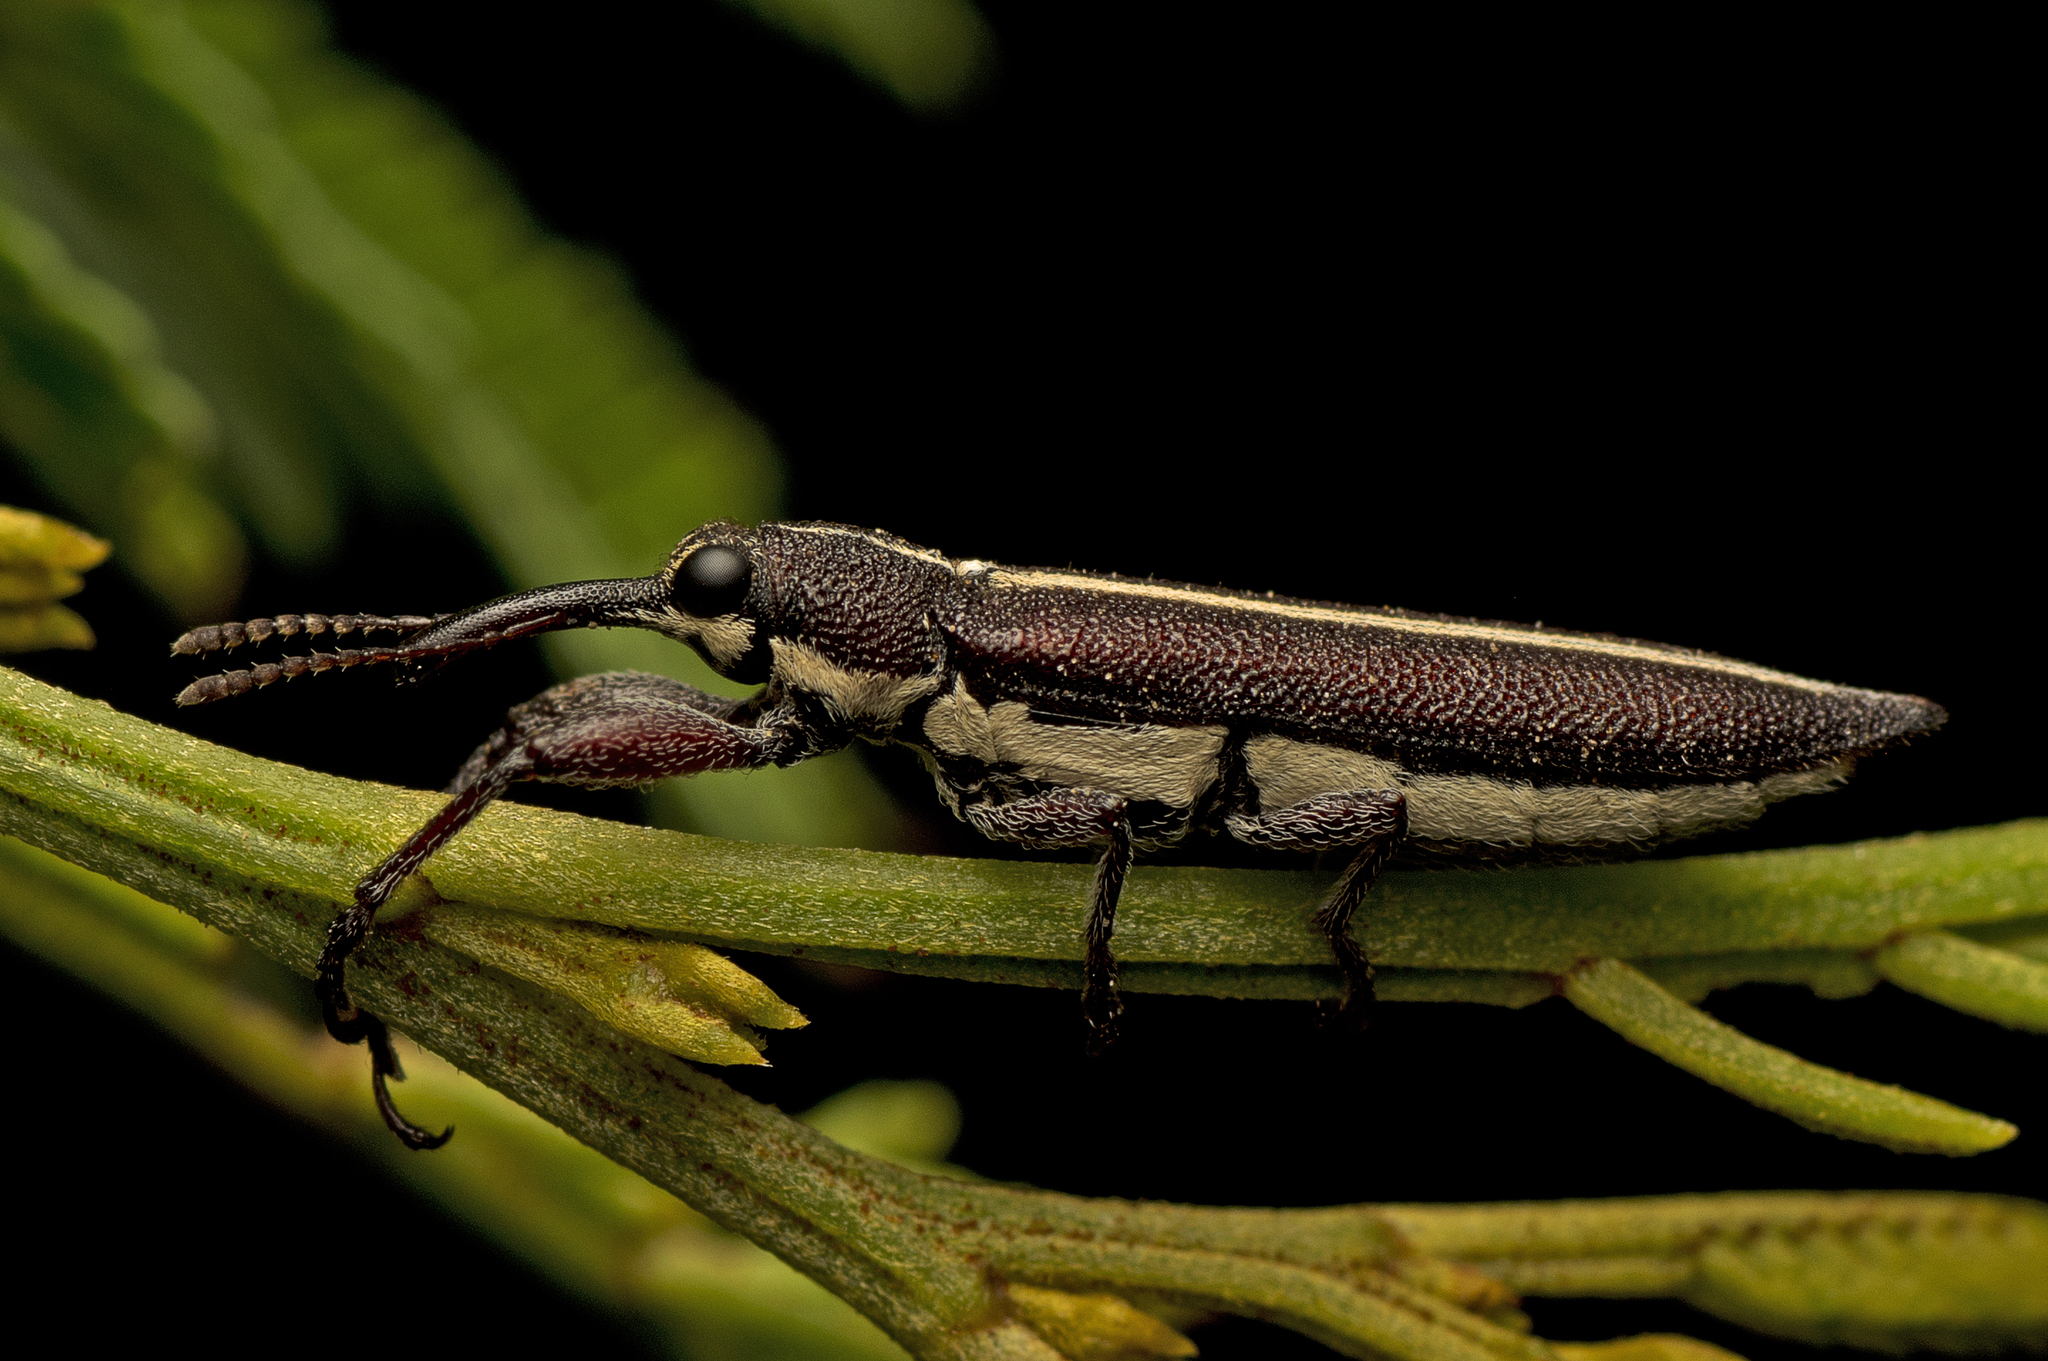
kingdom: Animalia
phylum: Arthropoda
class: Insecta
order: Coleoptera
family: Belidae
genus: Rhinotia
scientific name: Rhinotia suturalis
